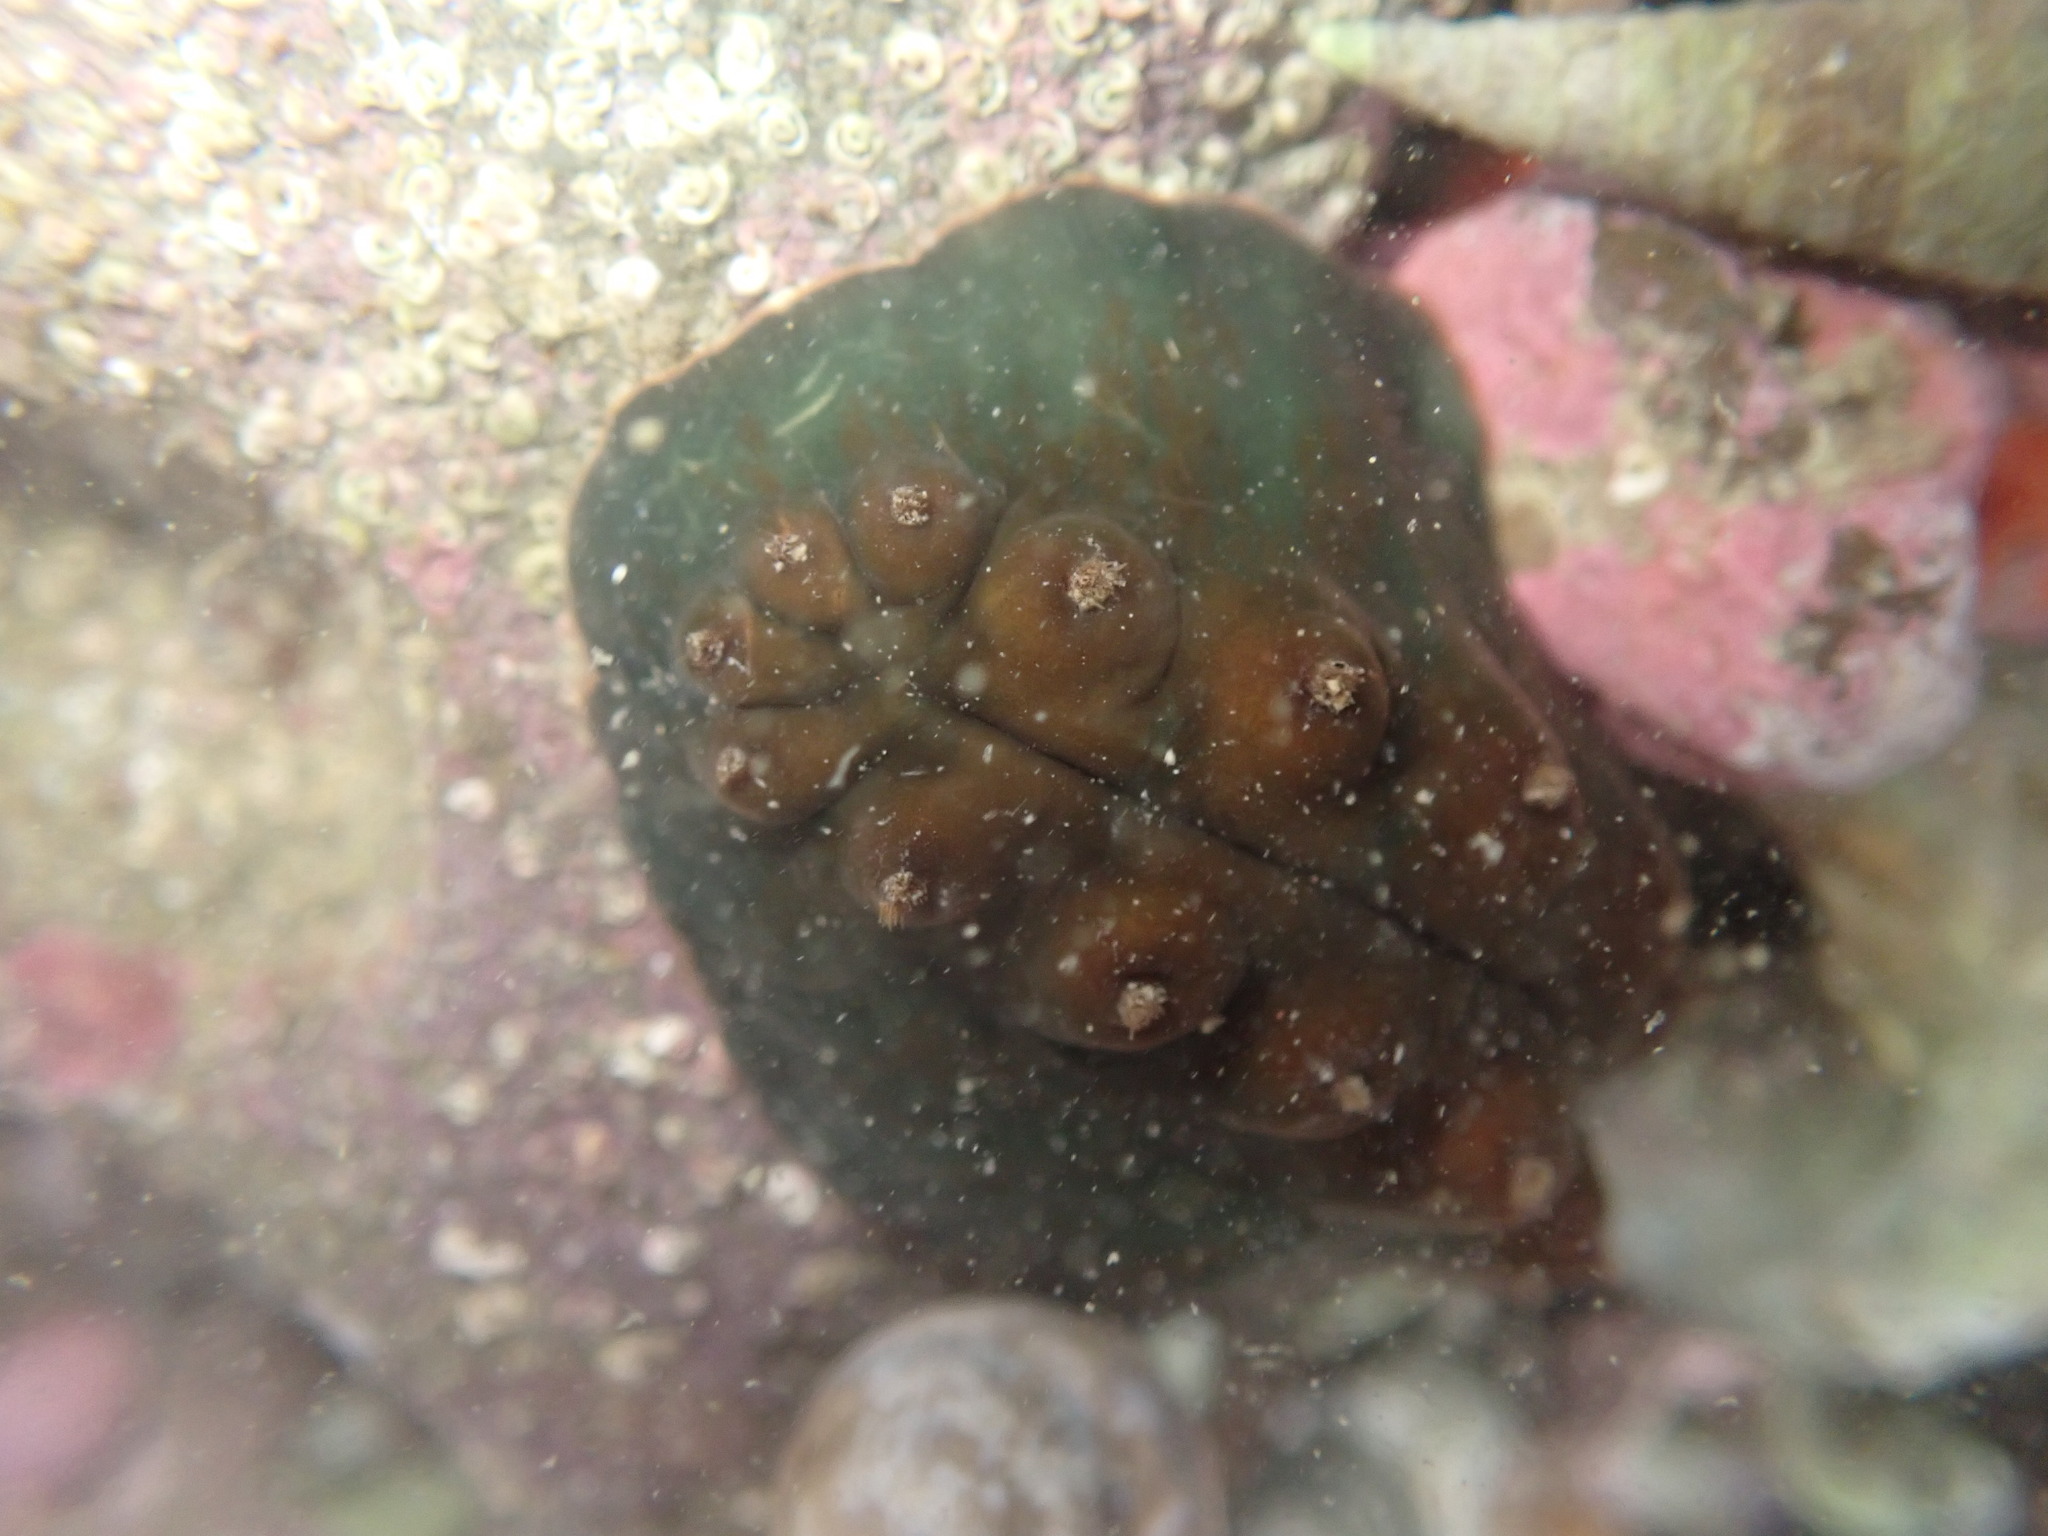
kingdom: Animalia
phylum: Mollusca
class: Polyplacophora
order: Chitonida
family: Acanthochitonidae
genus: Cryptoconchus
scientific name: Cryptoconchus porosus
